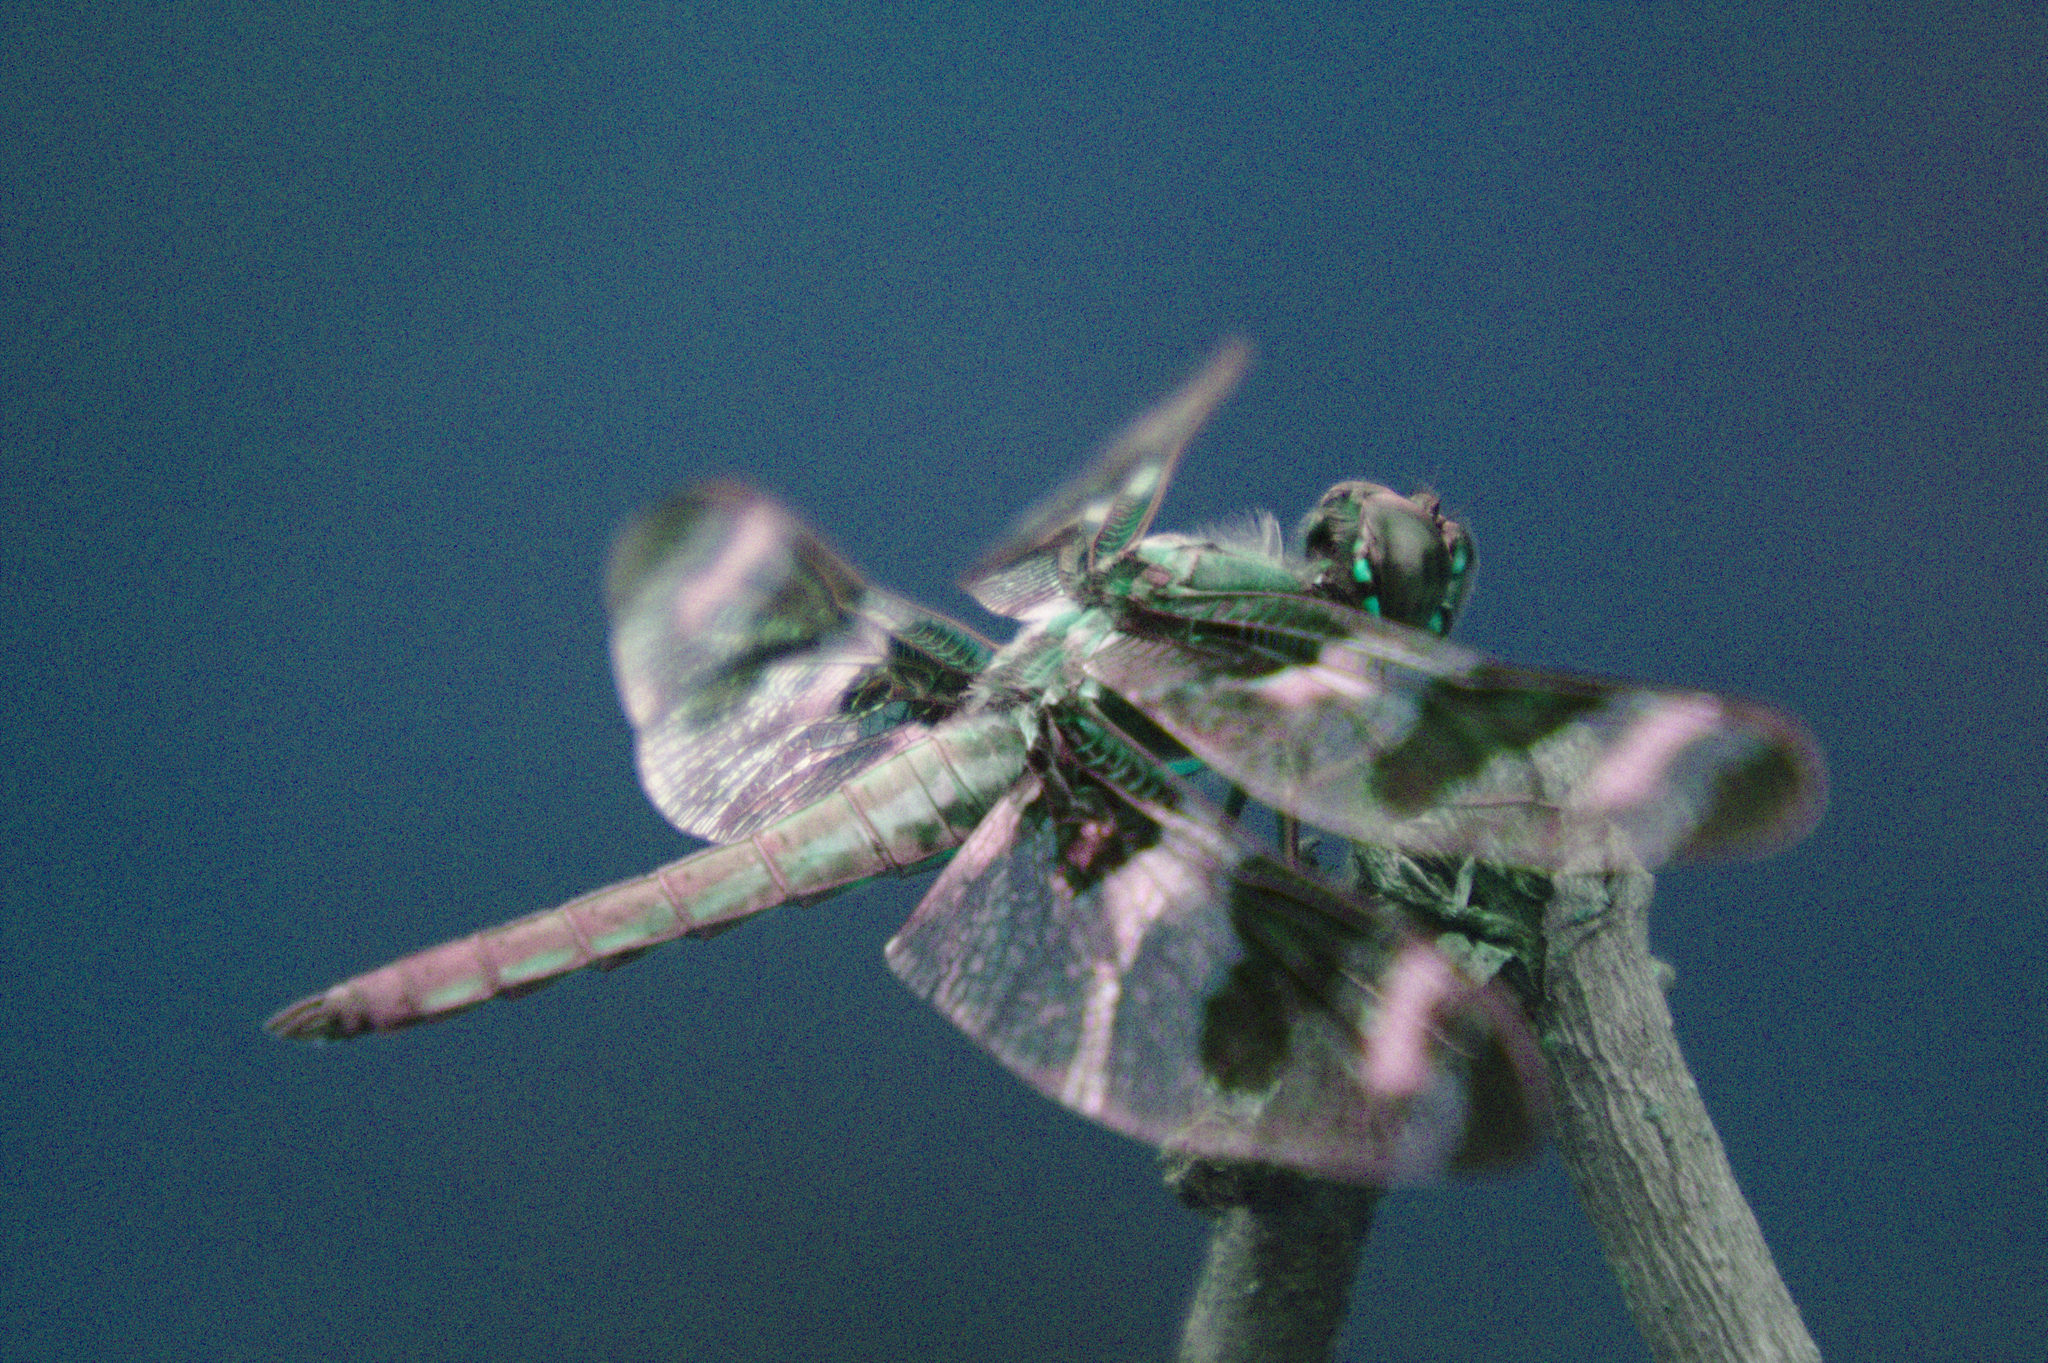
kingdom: Animalia
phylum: Arthropoda
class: Insecta
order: Odonata
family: Libellulidae
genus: Libellula
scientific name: Libellula pulchella
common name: Twelve-spotted skimmer
